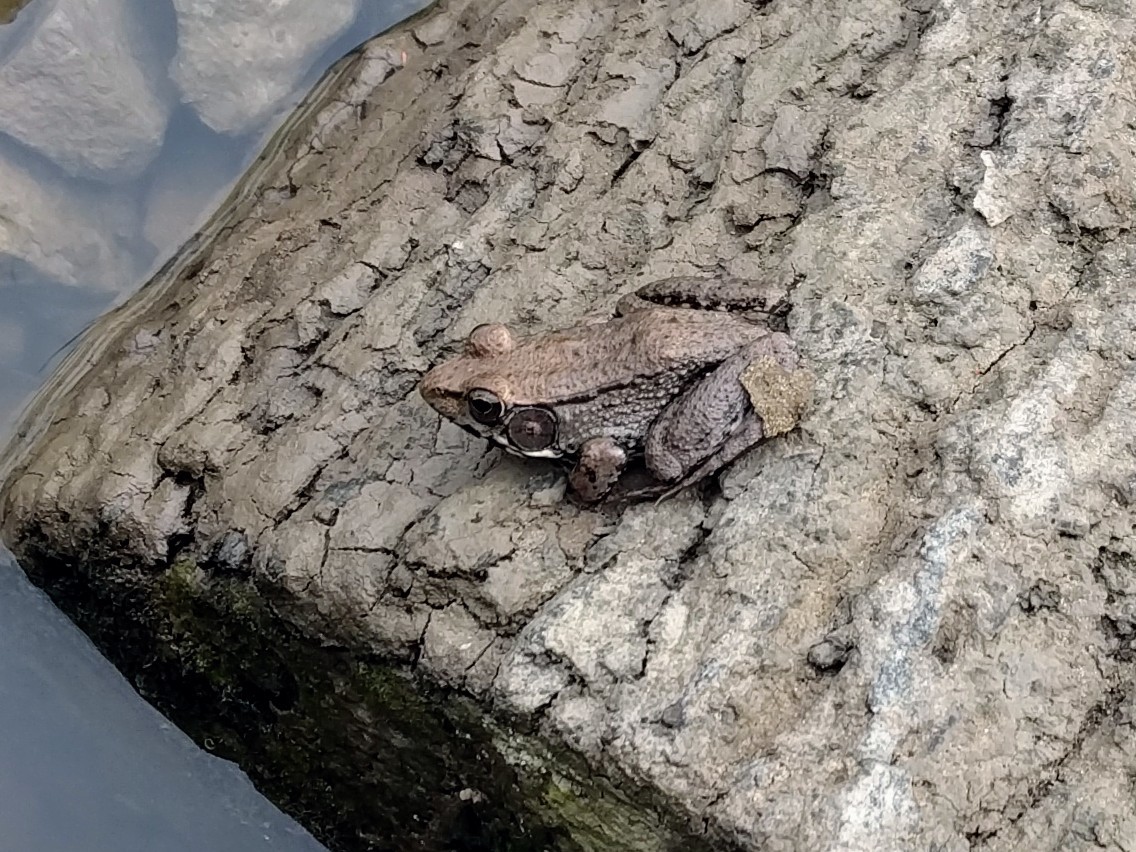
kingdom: Animalia
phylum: Chordata
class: Amphibia
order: Anura
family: Ranidae
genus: Lithobates
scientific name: Lithobates clamitans
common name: Green frog
